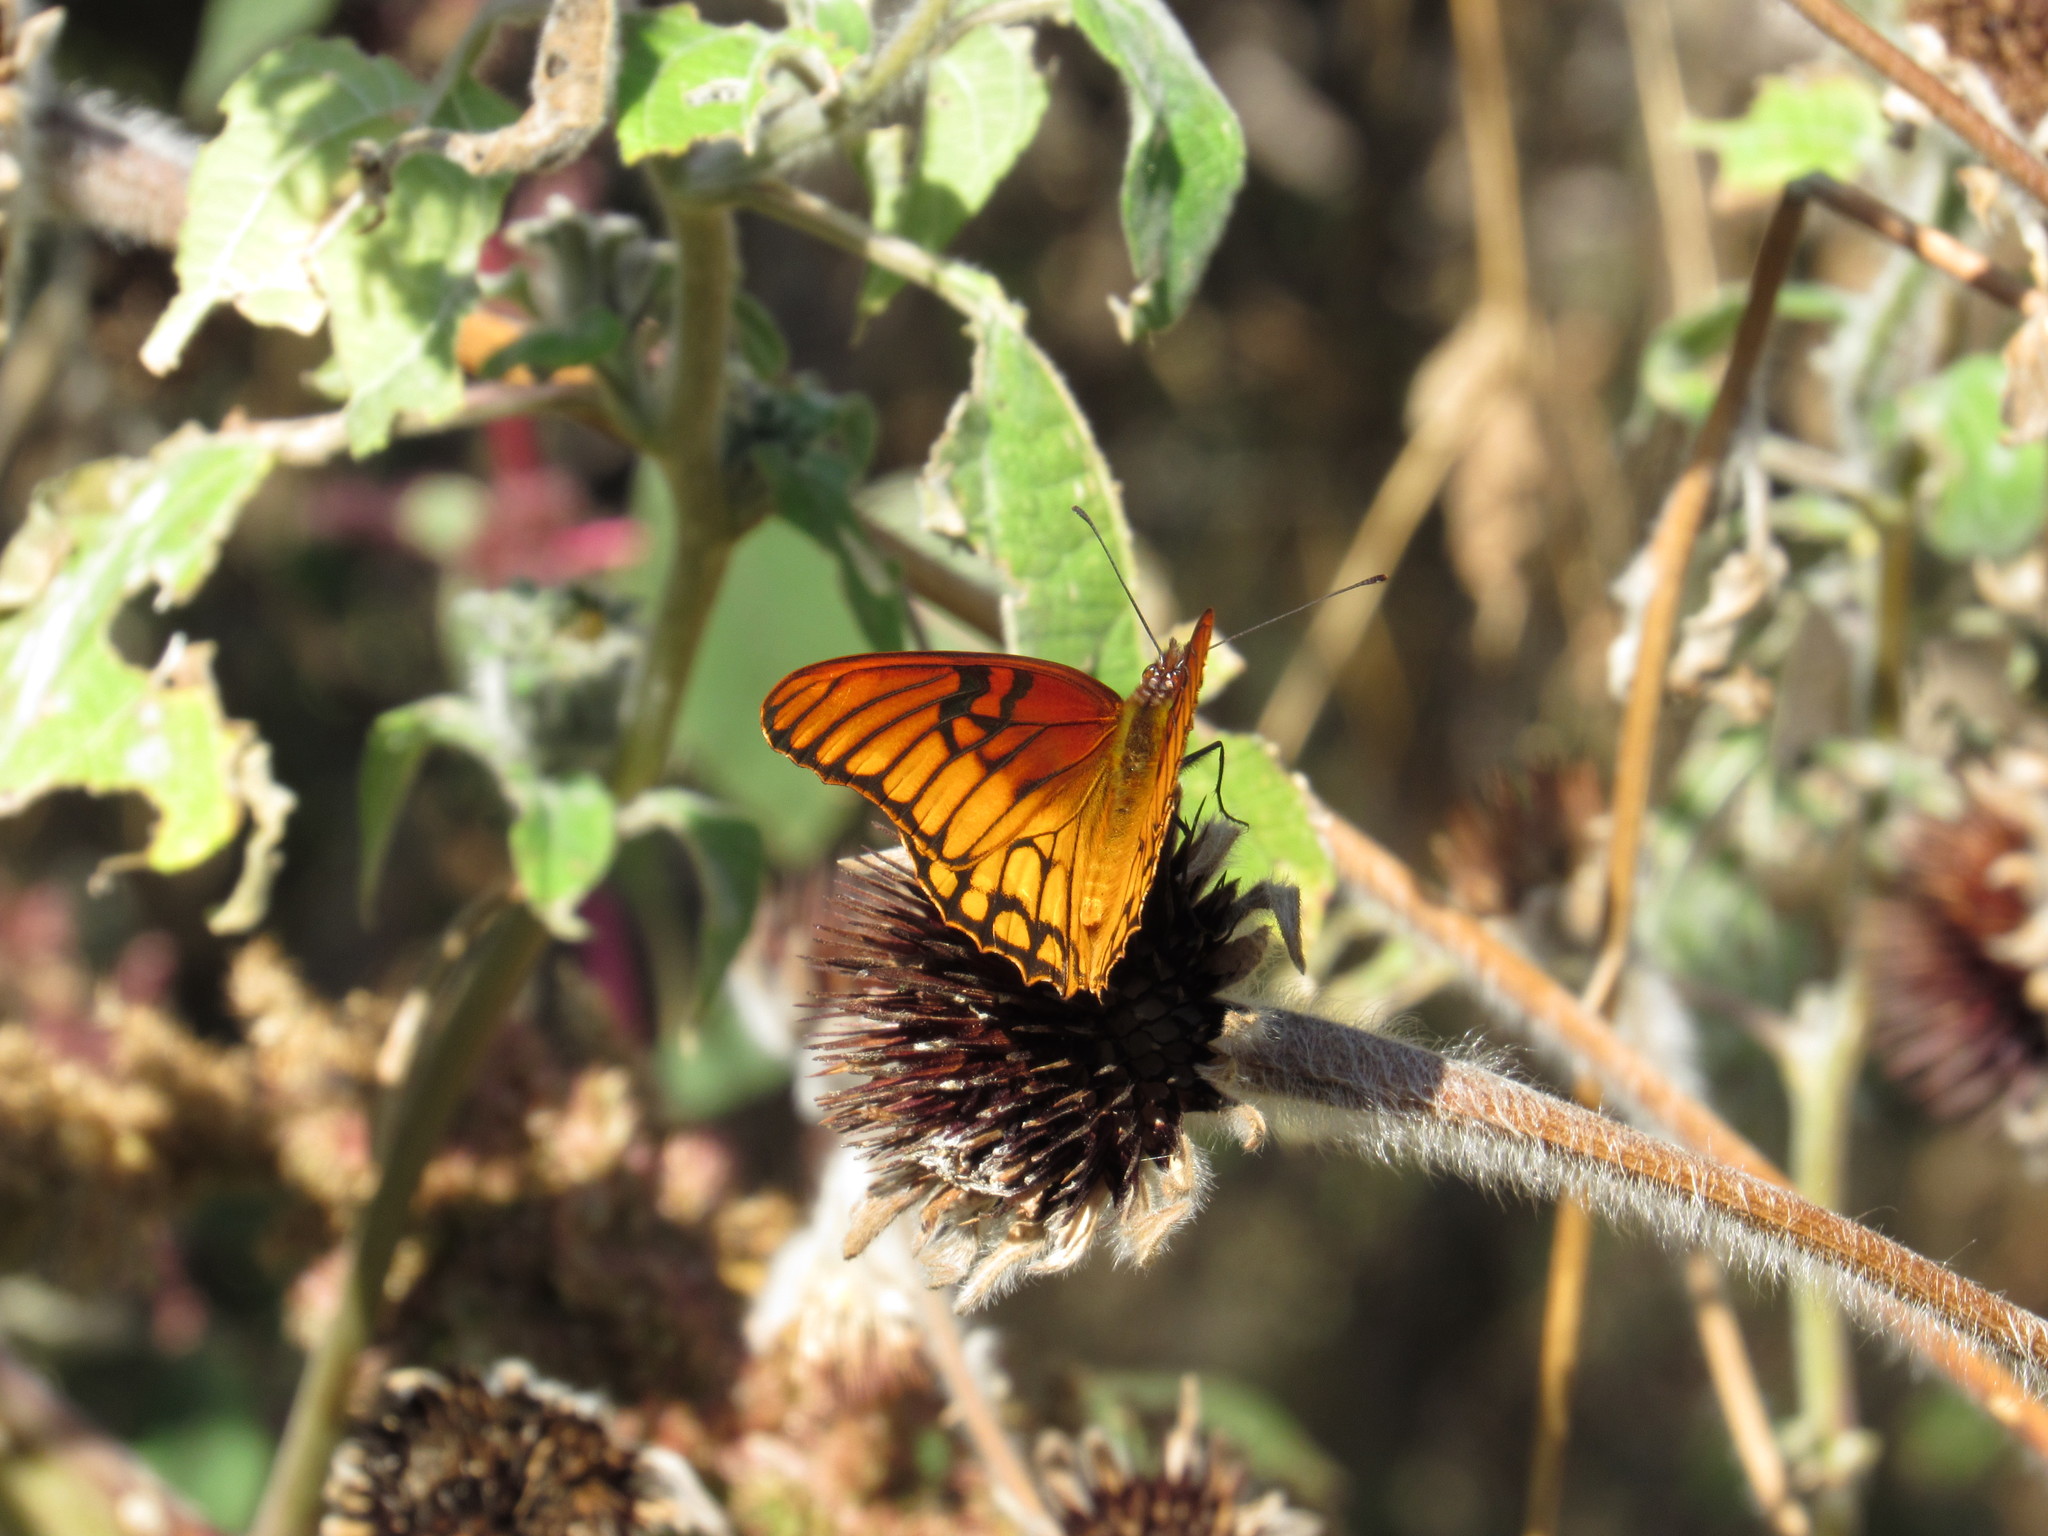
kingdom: Animalia
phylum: Arthropoda
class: Insecta
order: Lepidoptera
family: Nymphalidae
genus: Dione
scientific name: Dione moneta
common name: Mexican silverspot
